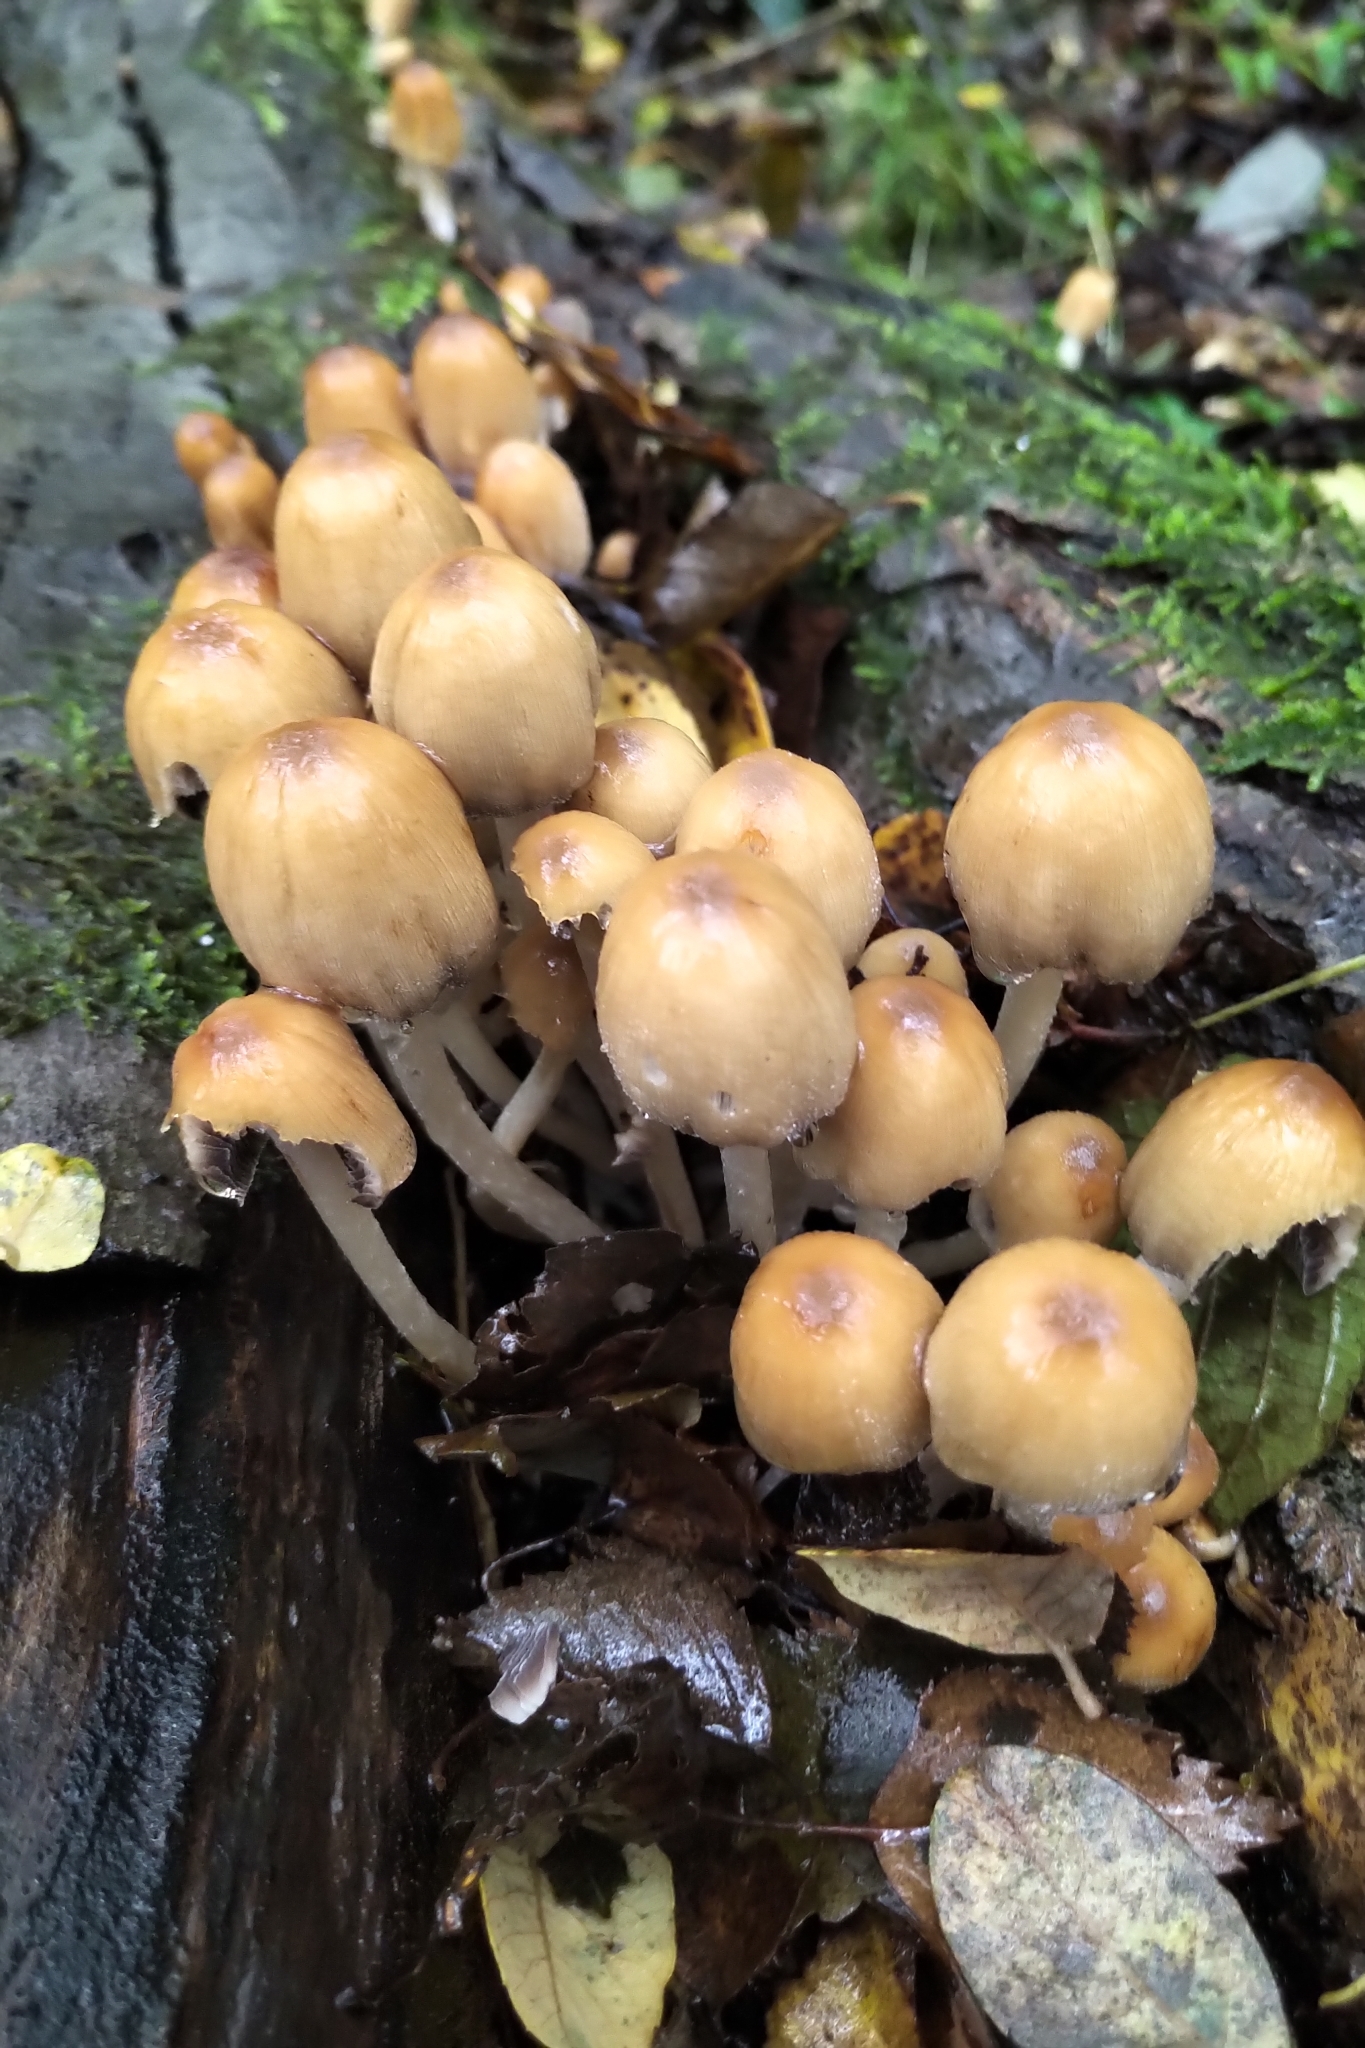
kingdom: Fungi
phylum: Basidiomycota
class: Agaricomycetes
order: Agaricales
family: Psathyrellaceae
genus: Coprinellus
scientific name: Coprinellus micaceus
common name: Glistening ink-cap
